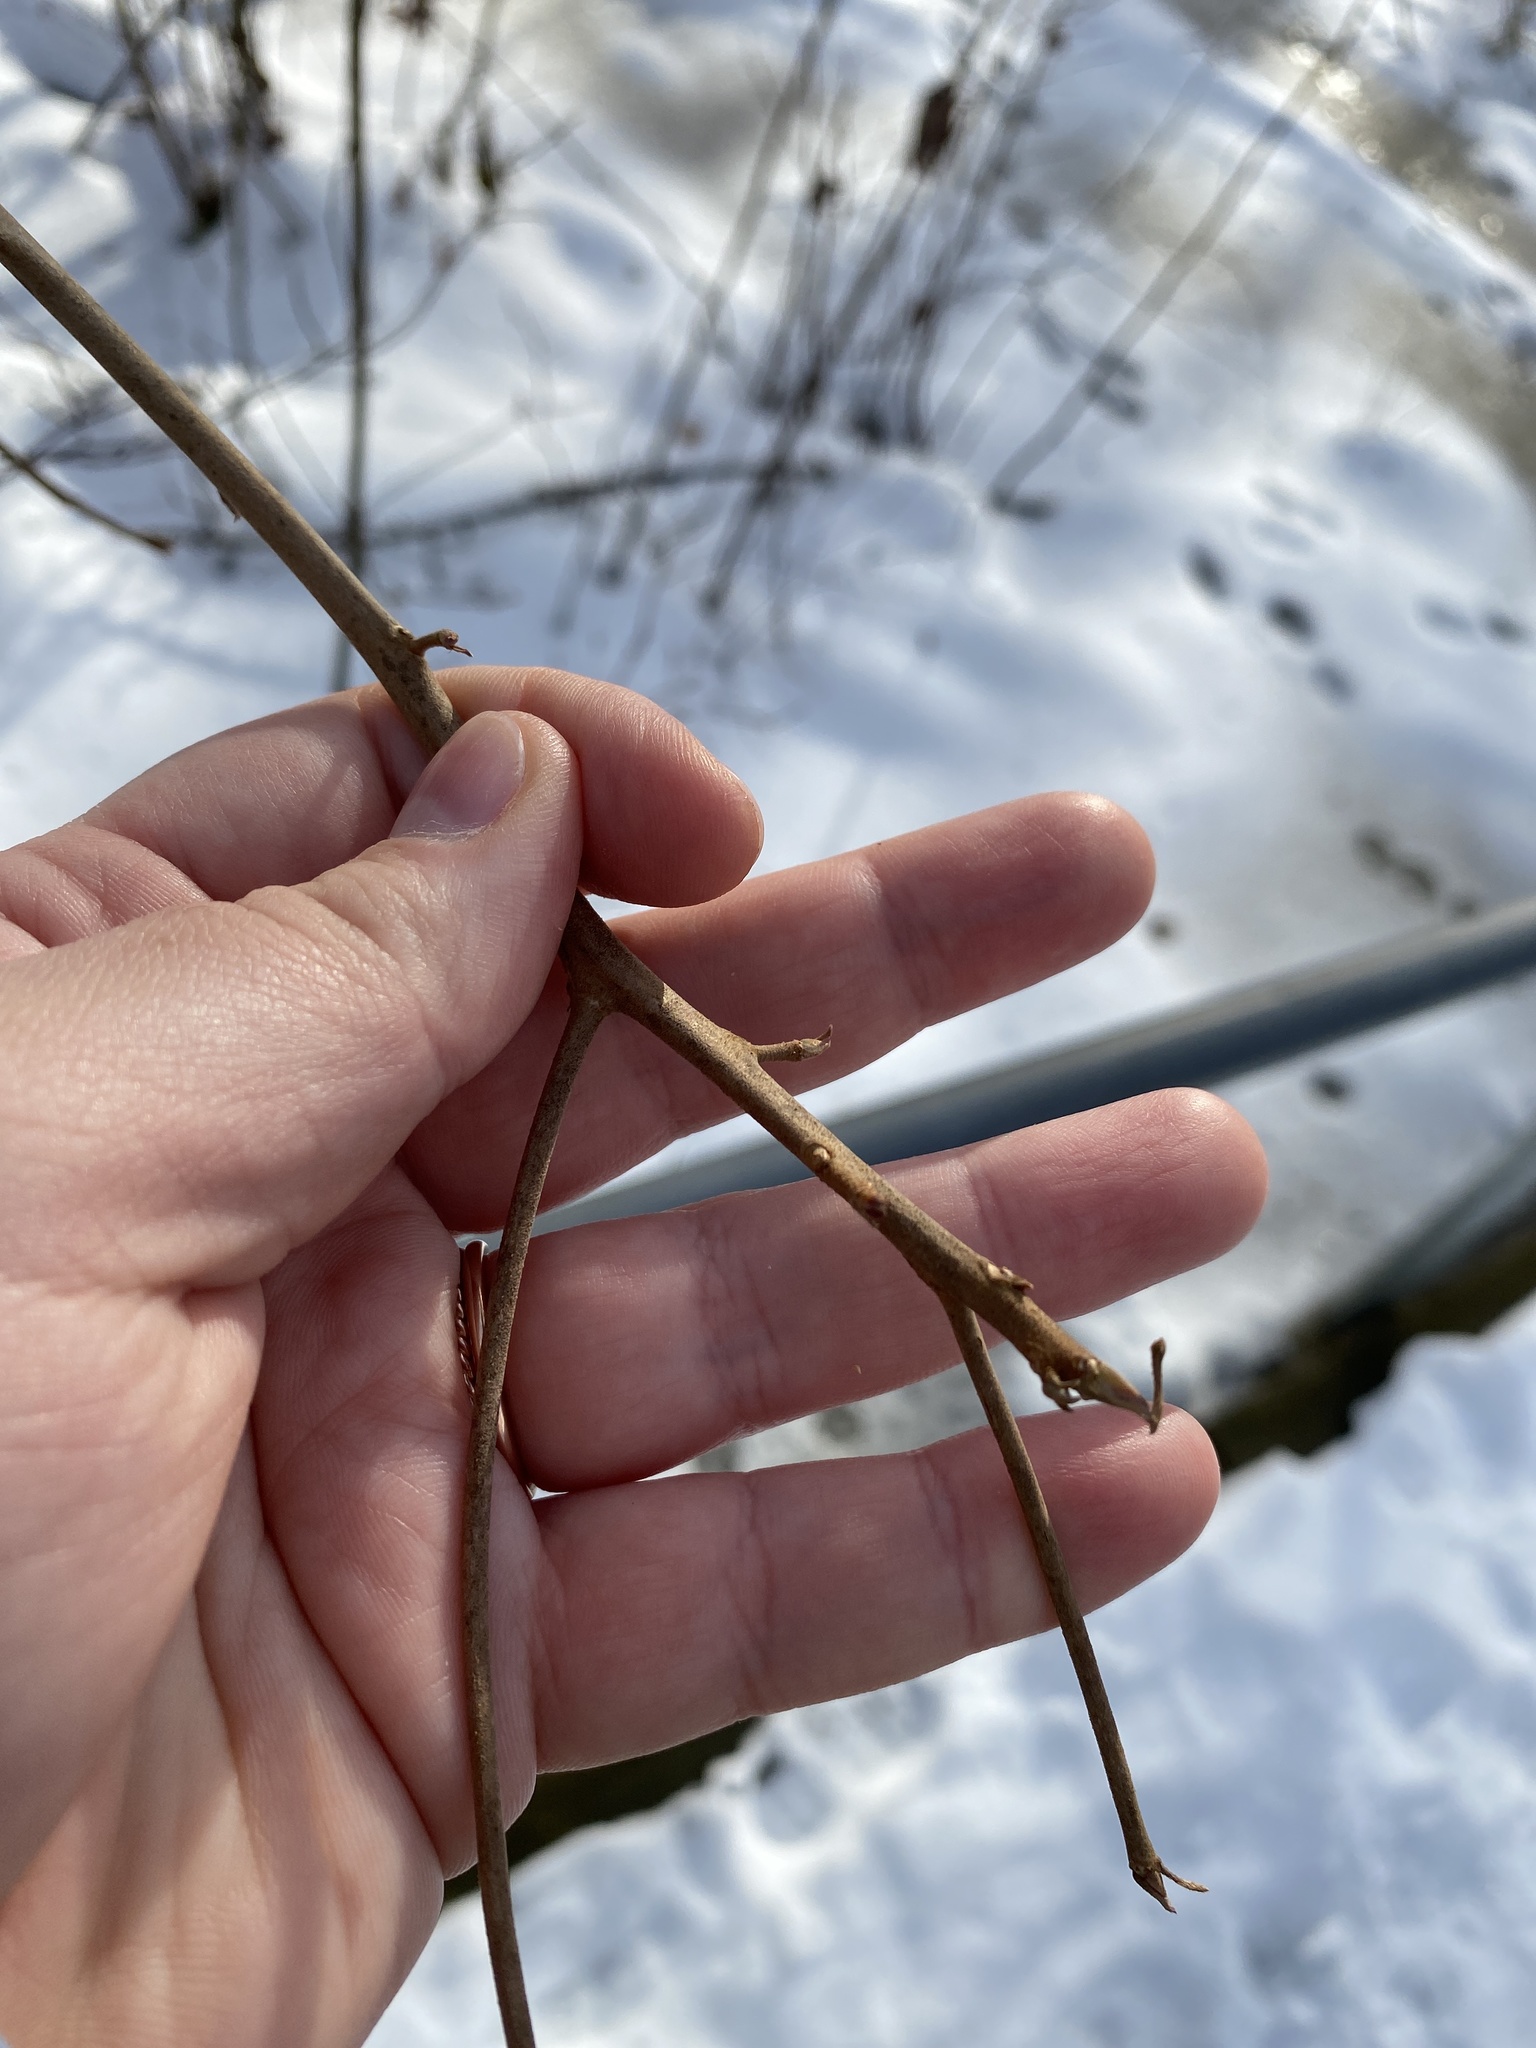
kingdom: Plantae
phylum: Tracheophyta
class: Magnoliopsida
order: Ericales
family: Clethraceae
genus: Clethra
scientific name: Clethra alnifolia
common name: Sweet pepperbush
